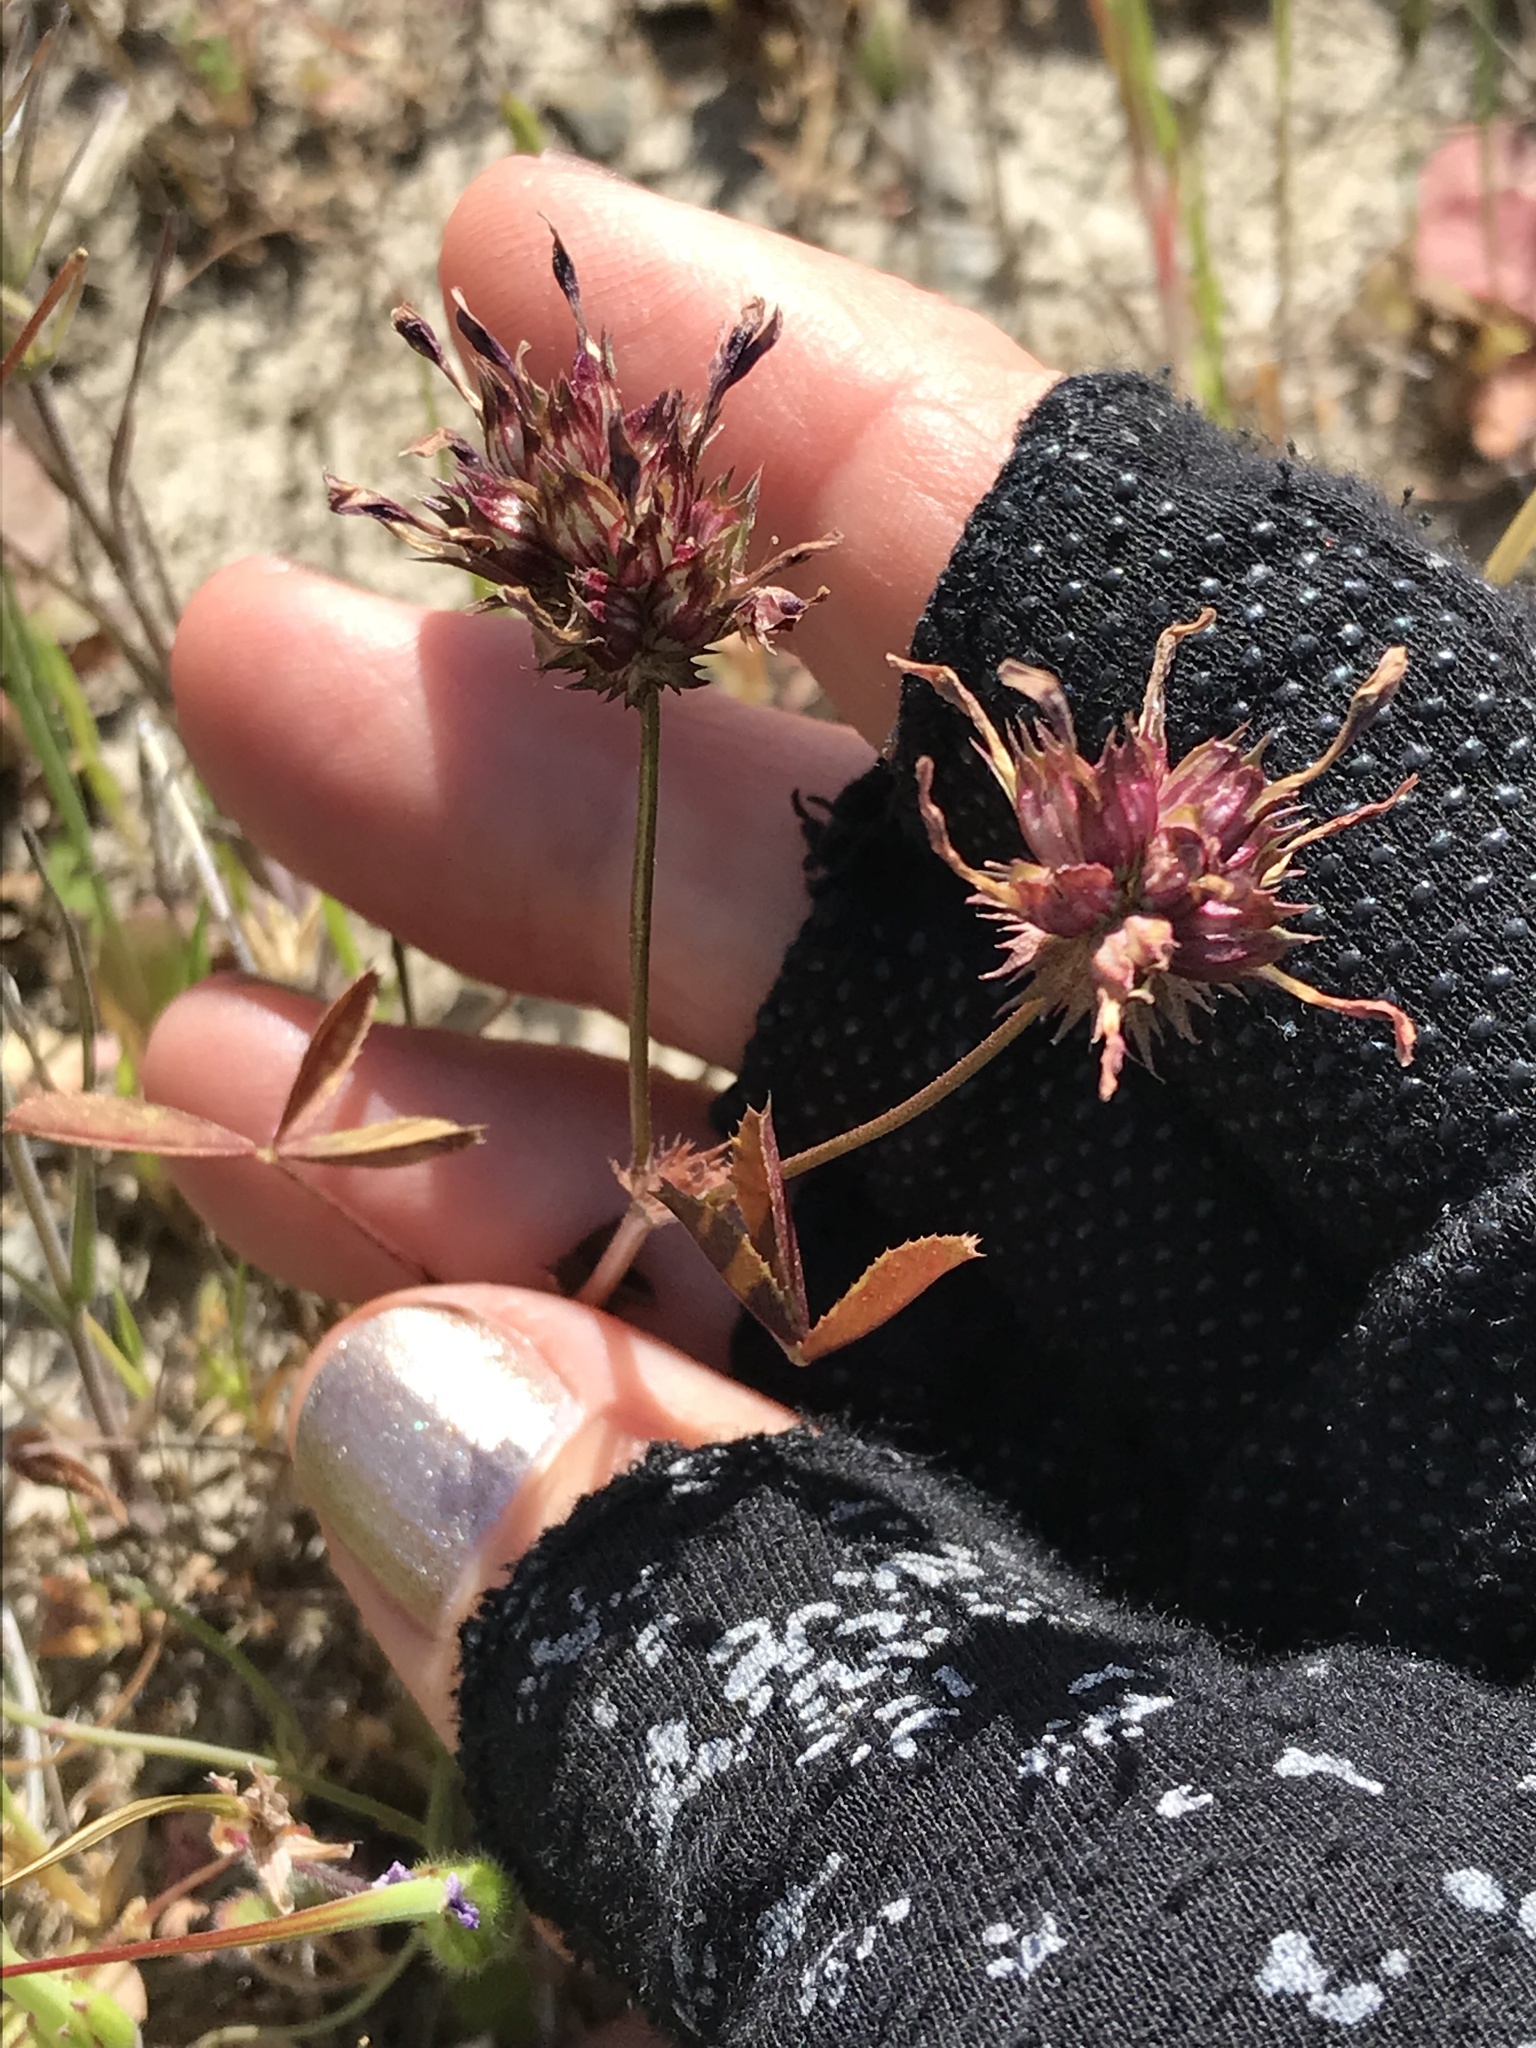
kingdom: Plantae
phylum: Tracheophyta
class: Magnoliopsida
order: Fabales
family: Fabaceae
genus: Trifolium
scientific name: Trifolium willdenovii
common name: Tomcat clover
